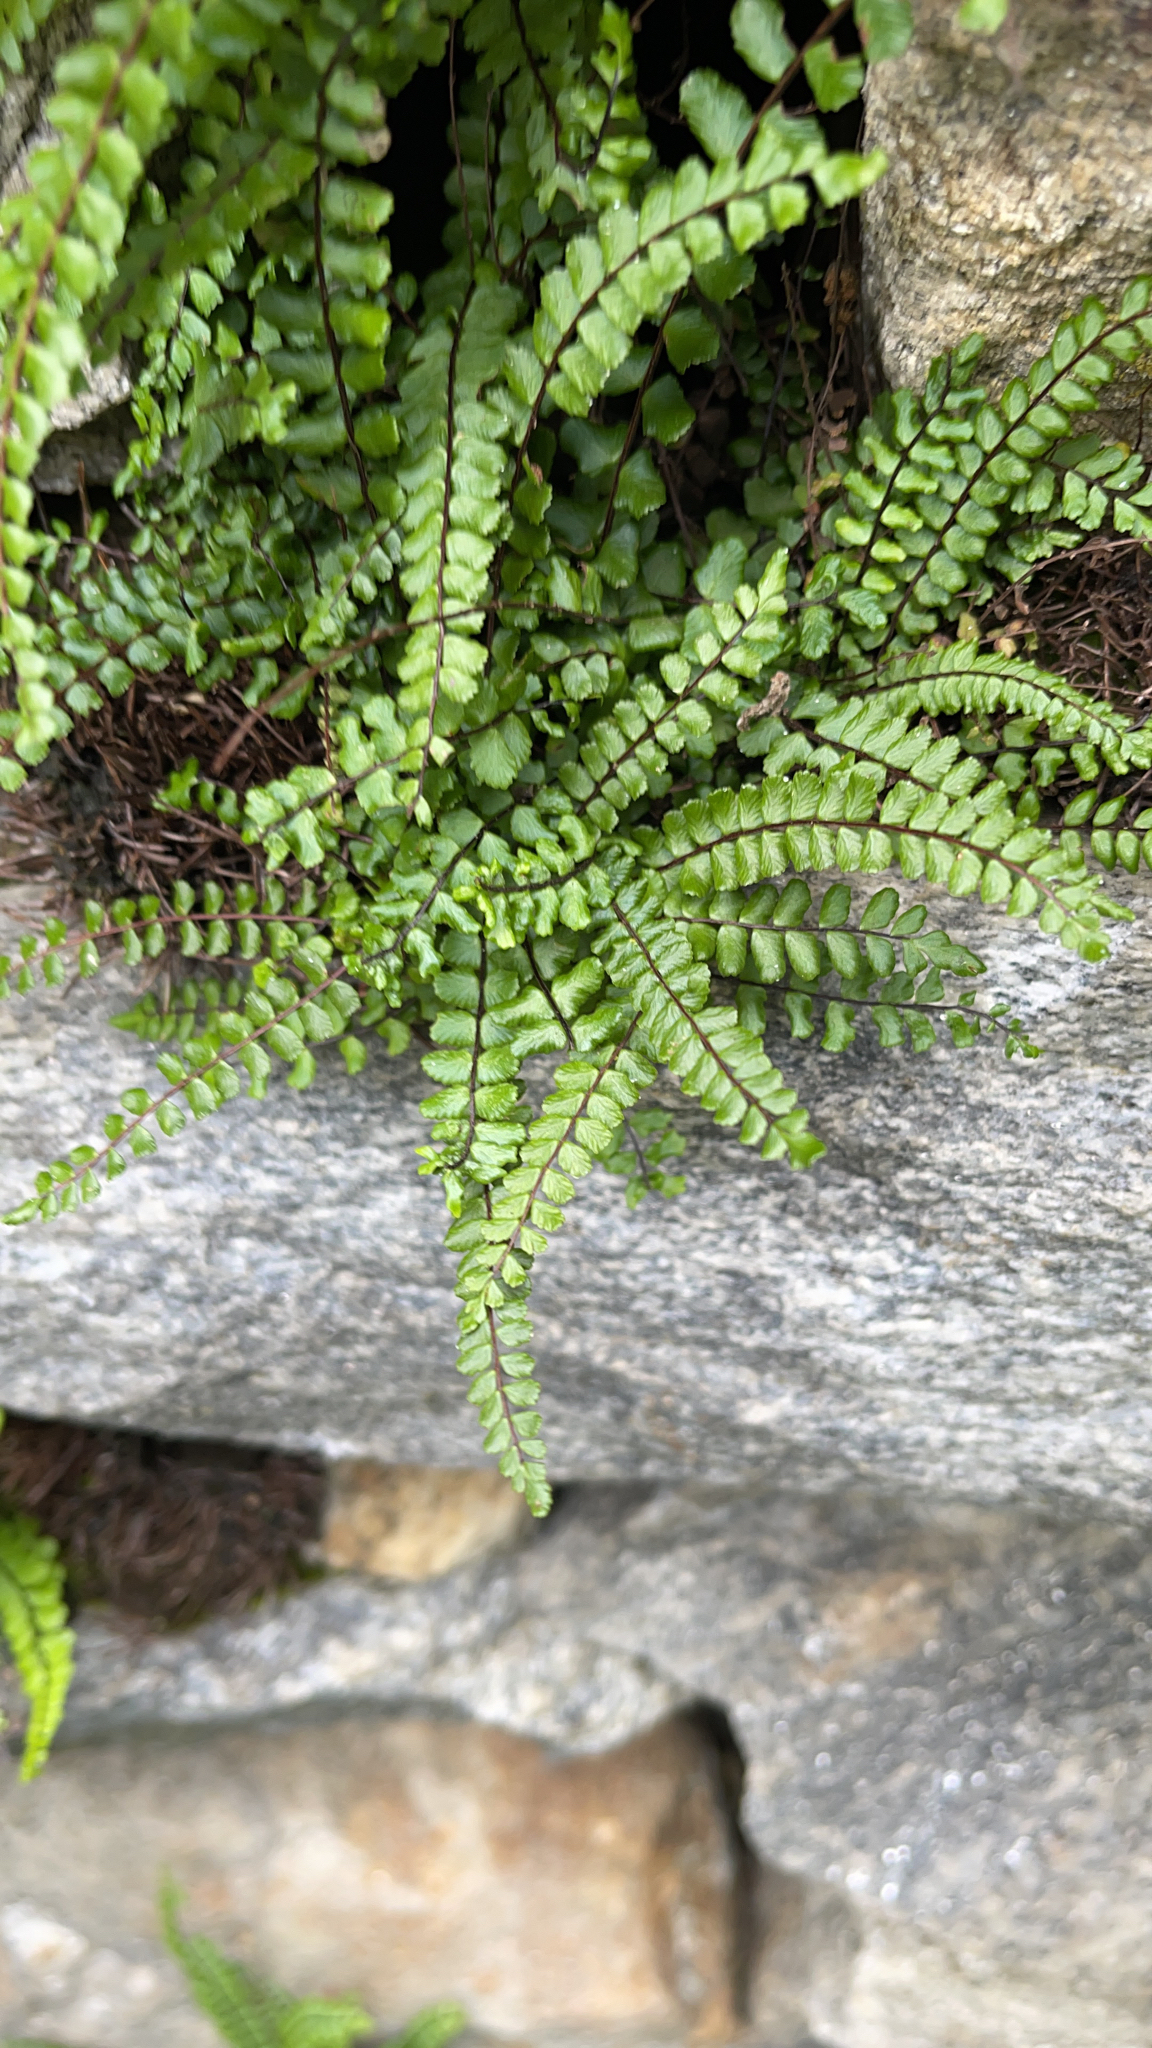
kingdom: Plantae
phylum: Tracheophyta
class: Polypodiopsida
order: Polypodiales
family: Aspleniaceae
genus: Asplenium
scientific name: Asplenium trichomanes
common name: Maidenhair spleenwort
